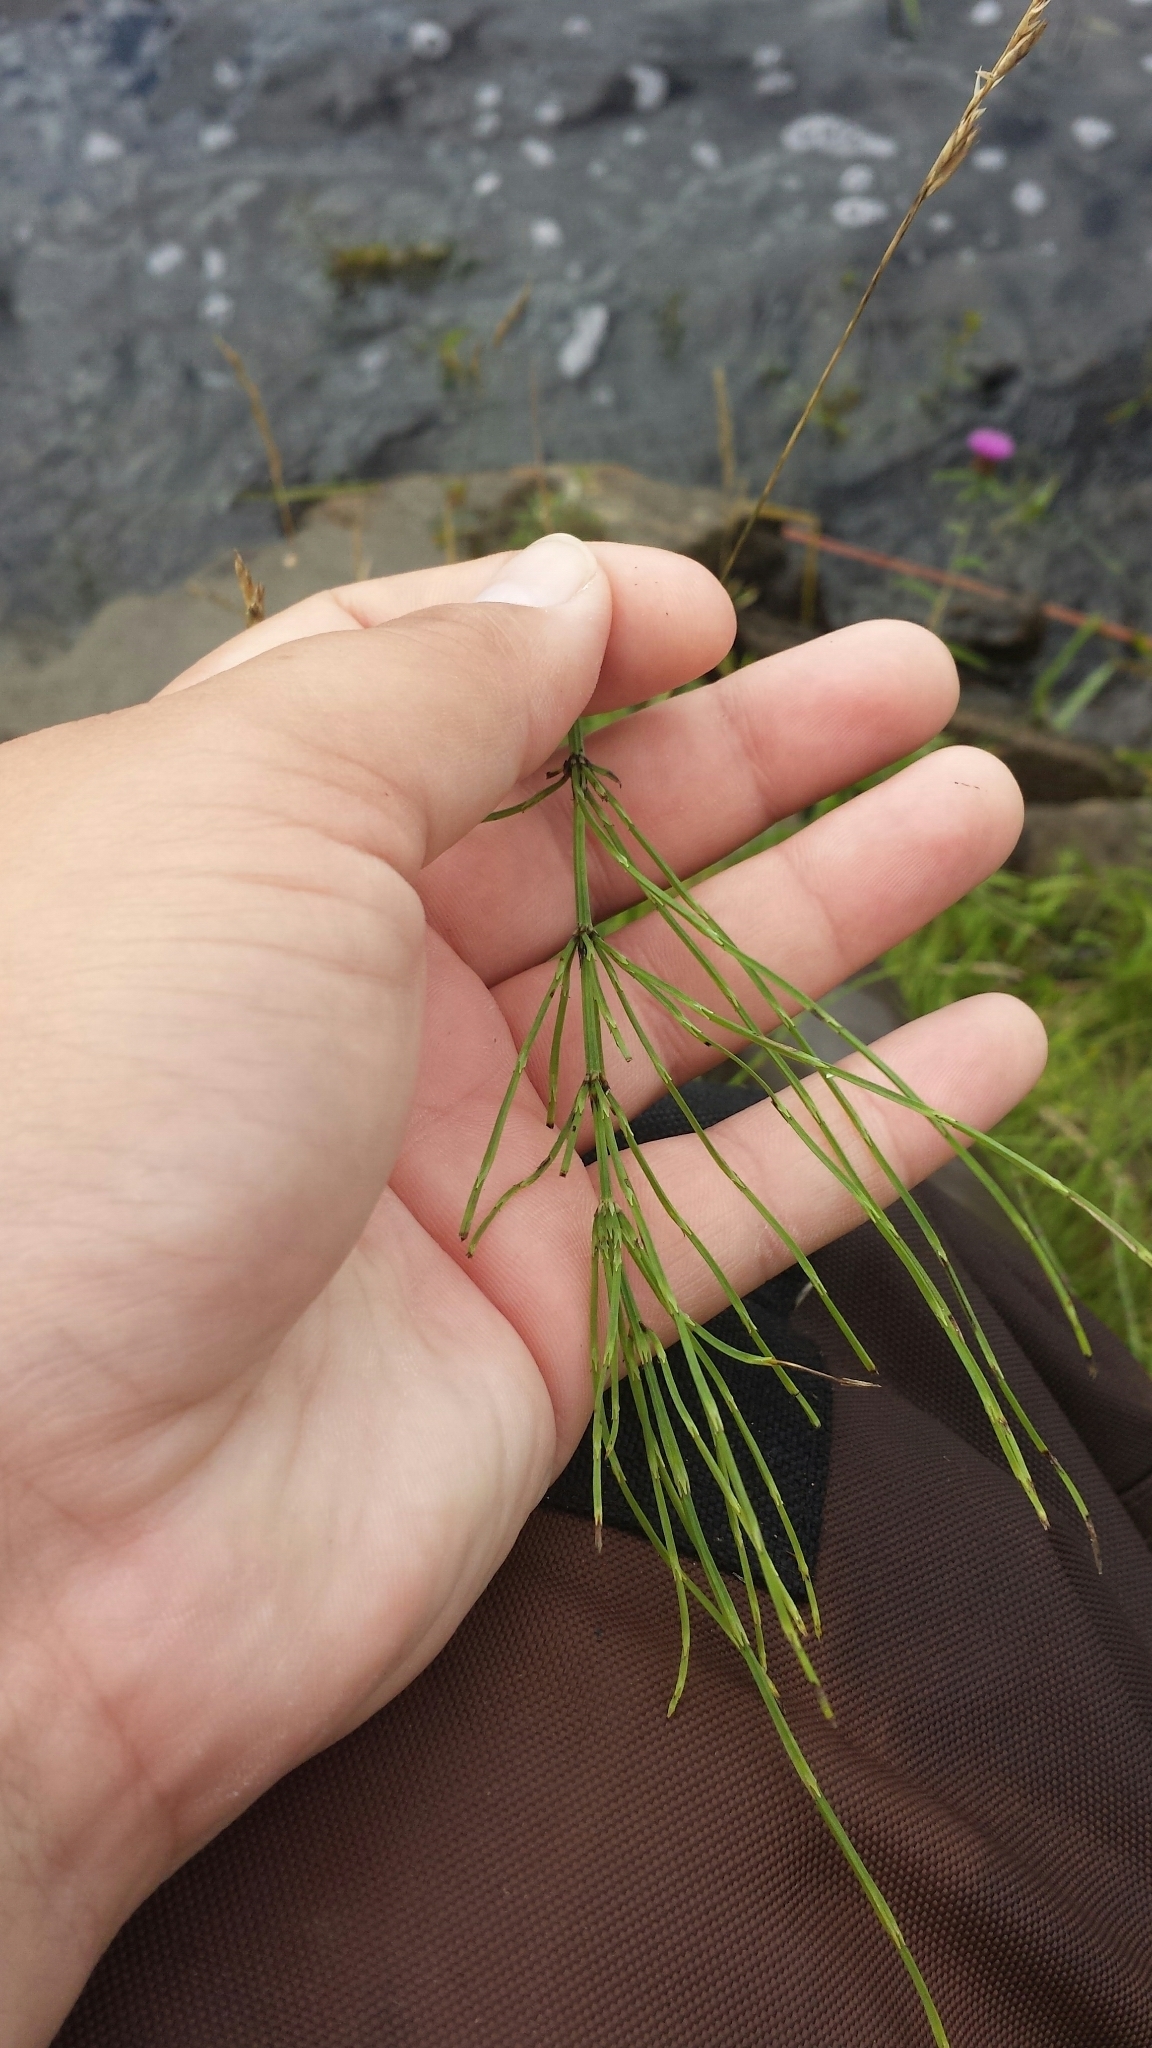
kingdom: Plantae
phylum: Tracheophyta
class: Polypodiopsida
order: Equisetales
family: Equisetaceae
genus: Equisetum
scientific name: Equisetum arvense
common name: Field horsetail
